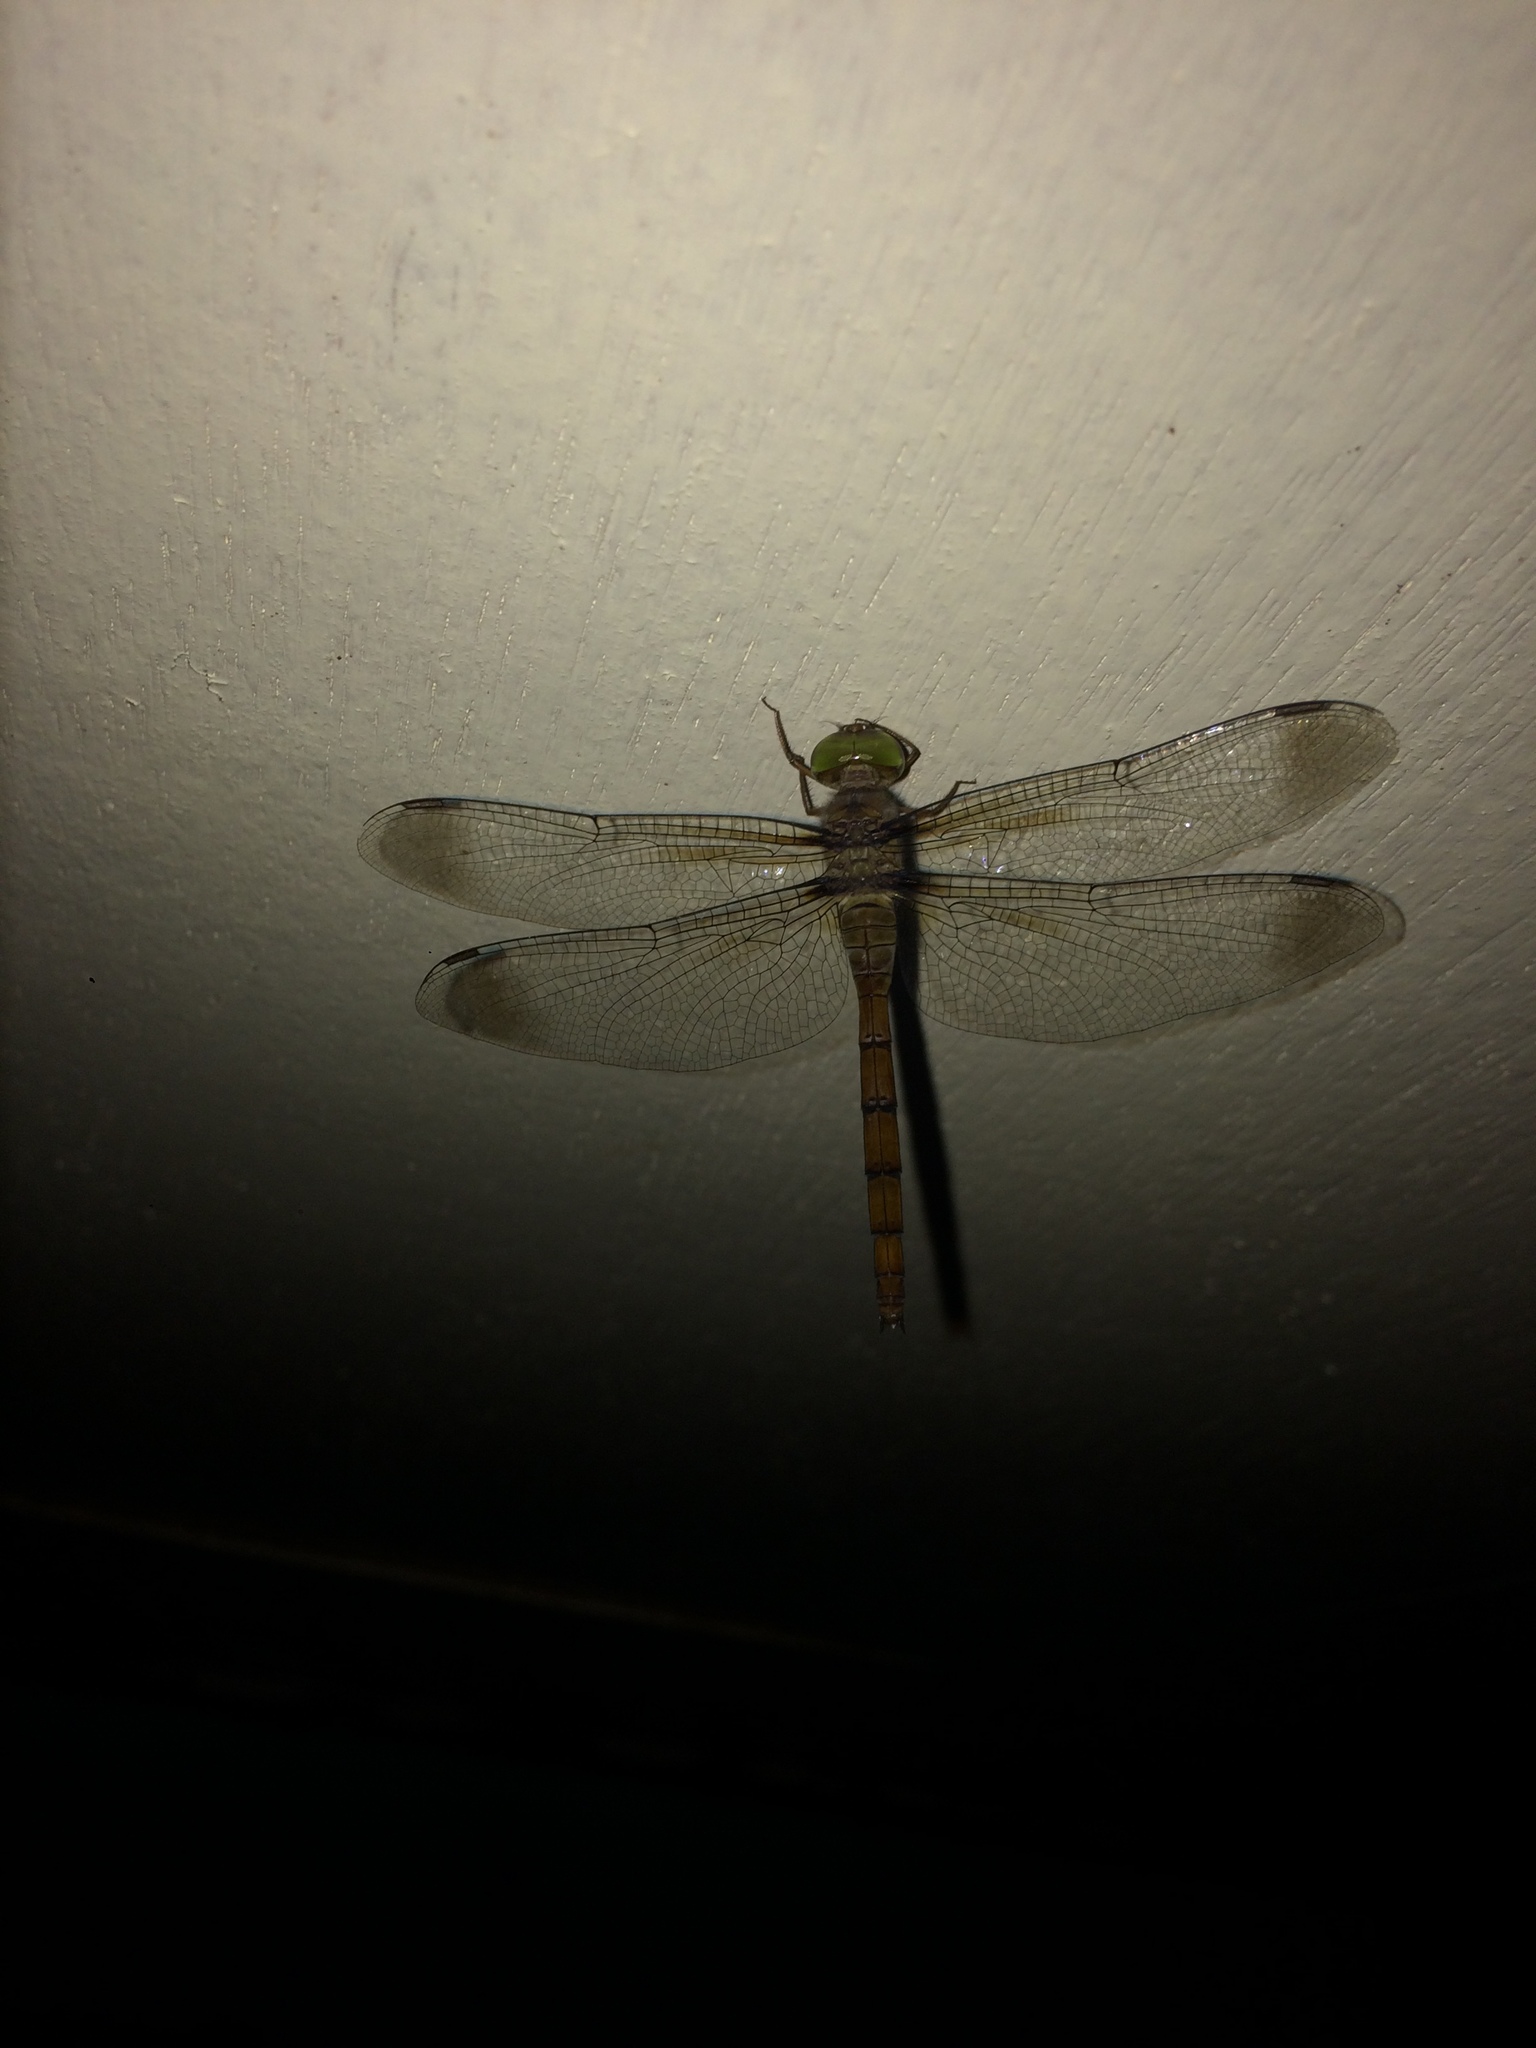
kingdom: Animalia
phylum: Arthropoda
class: Insecta
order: Odonata
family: Libellulidae
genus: Zyxomma
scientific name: Zyxomma obtusum
